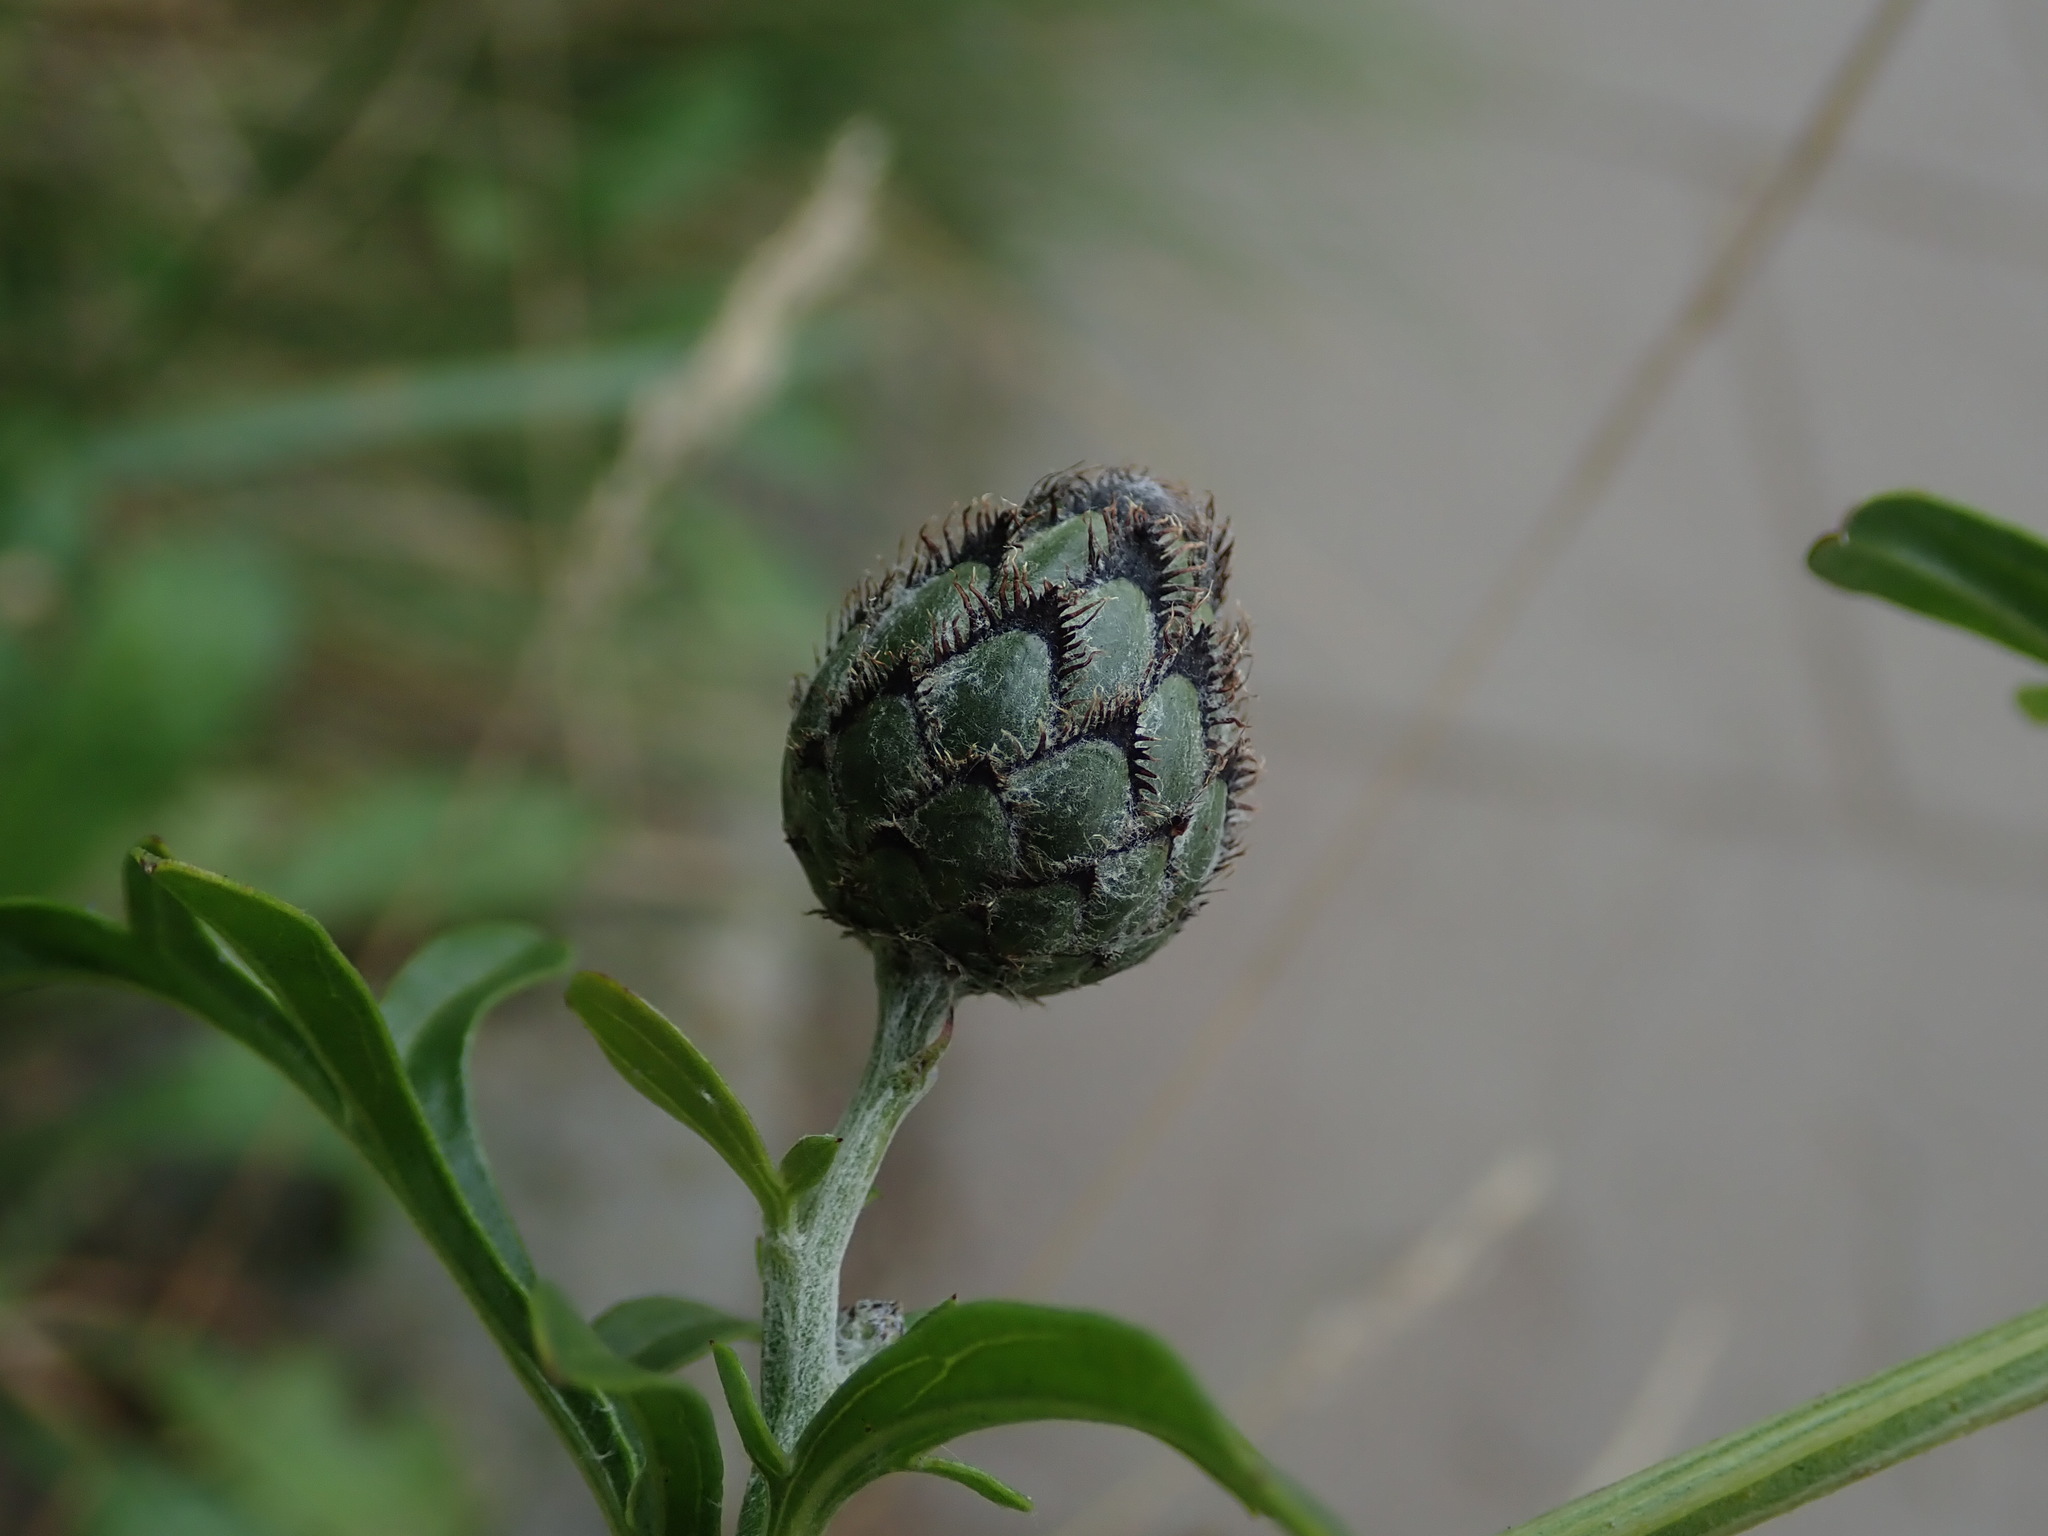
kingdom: Plantae
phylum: Tracheophyta
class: Magnoliopsida
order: Asterales
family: Asteraceae
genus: Centaurea
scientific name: Centaurea scabiosa
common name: Greater knapweed
